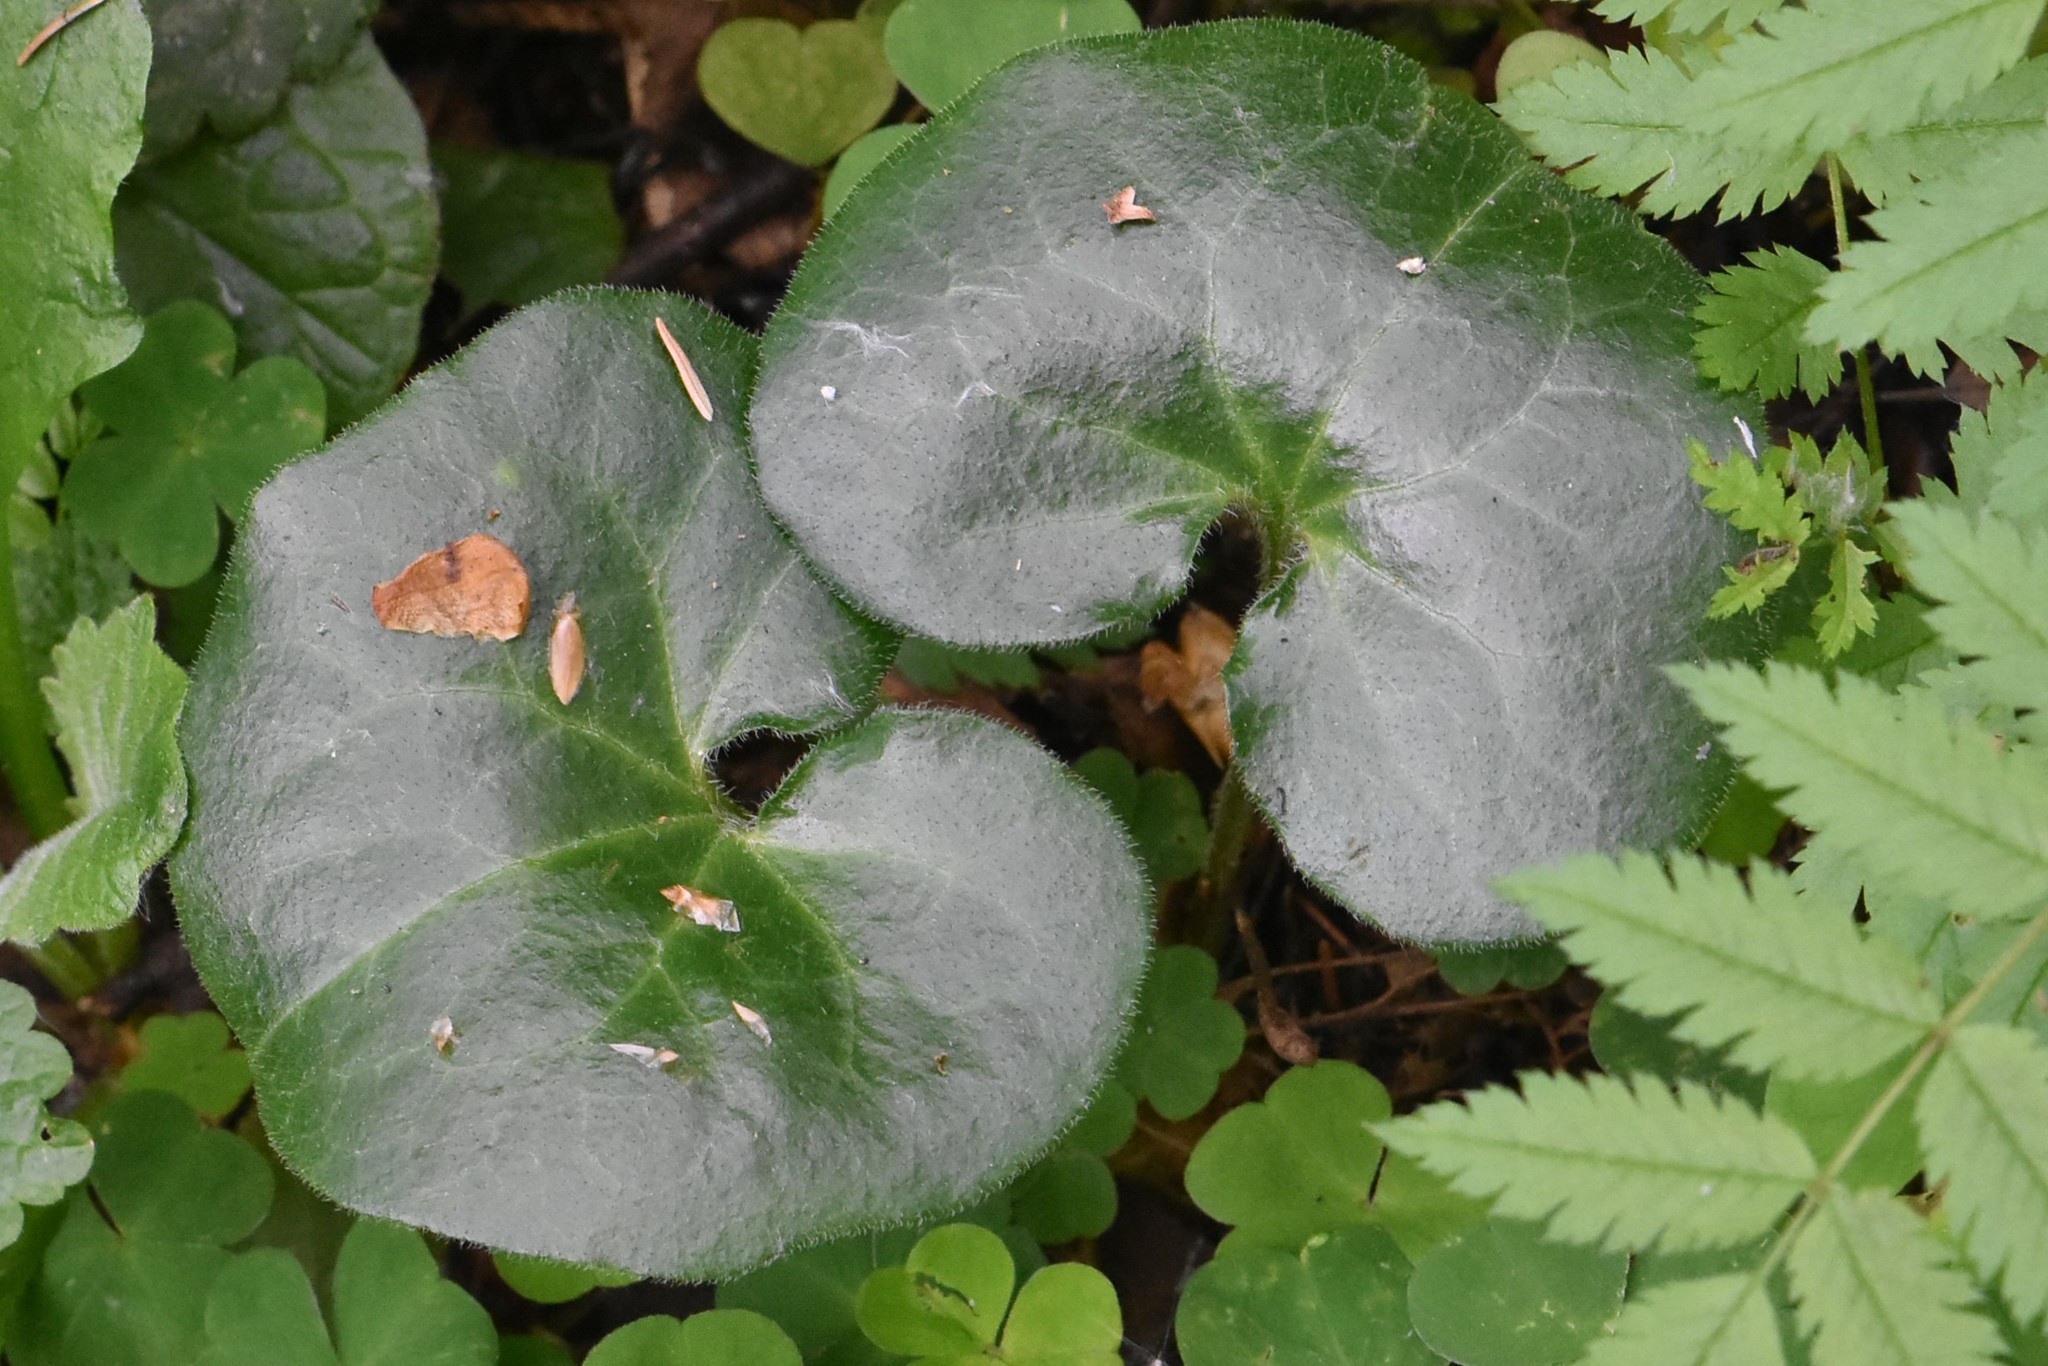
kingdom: Plantae
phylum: Tracheophyta
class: Magnoliopsida
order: Piperales
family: Aristolochiaceae
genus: Asarum
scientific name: Asarum europaeum
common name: Asarabacca
